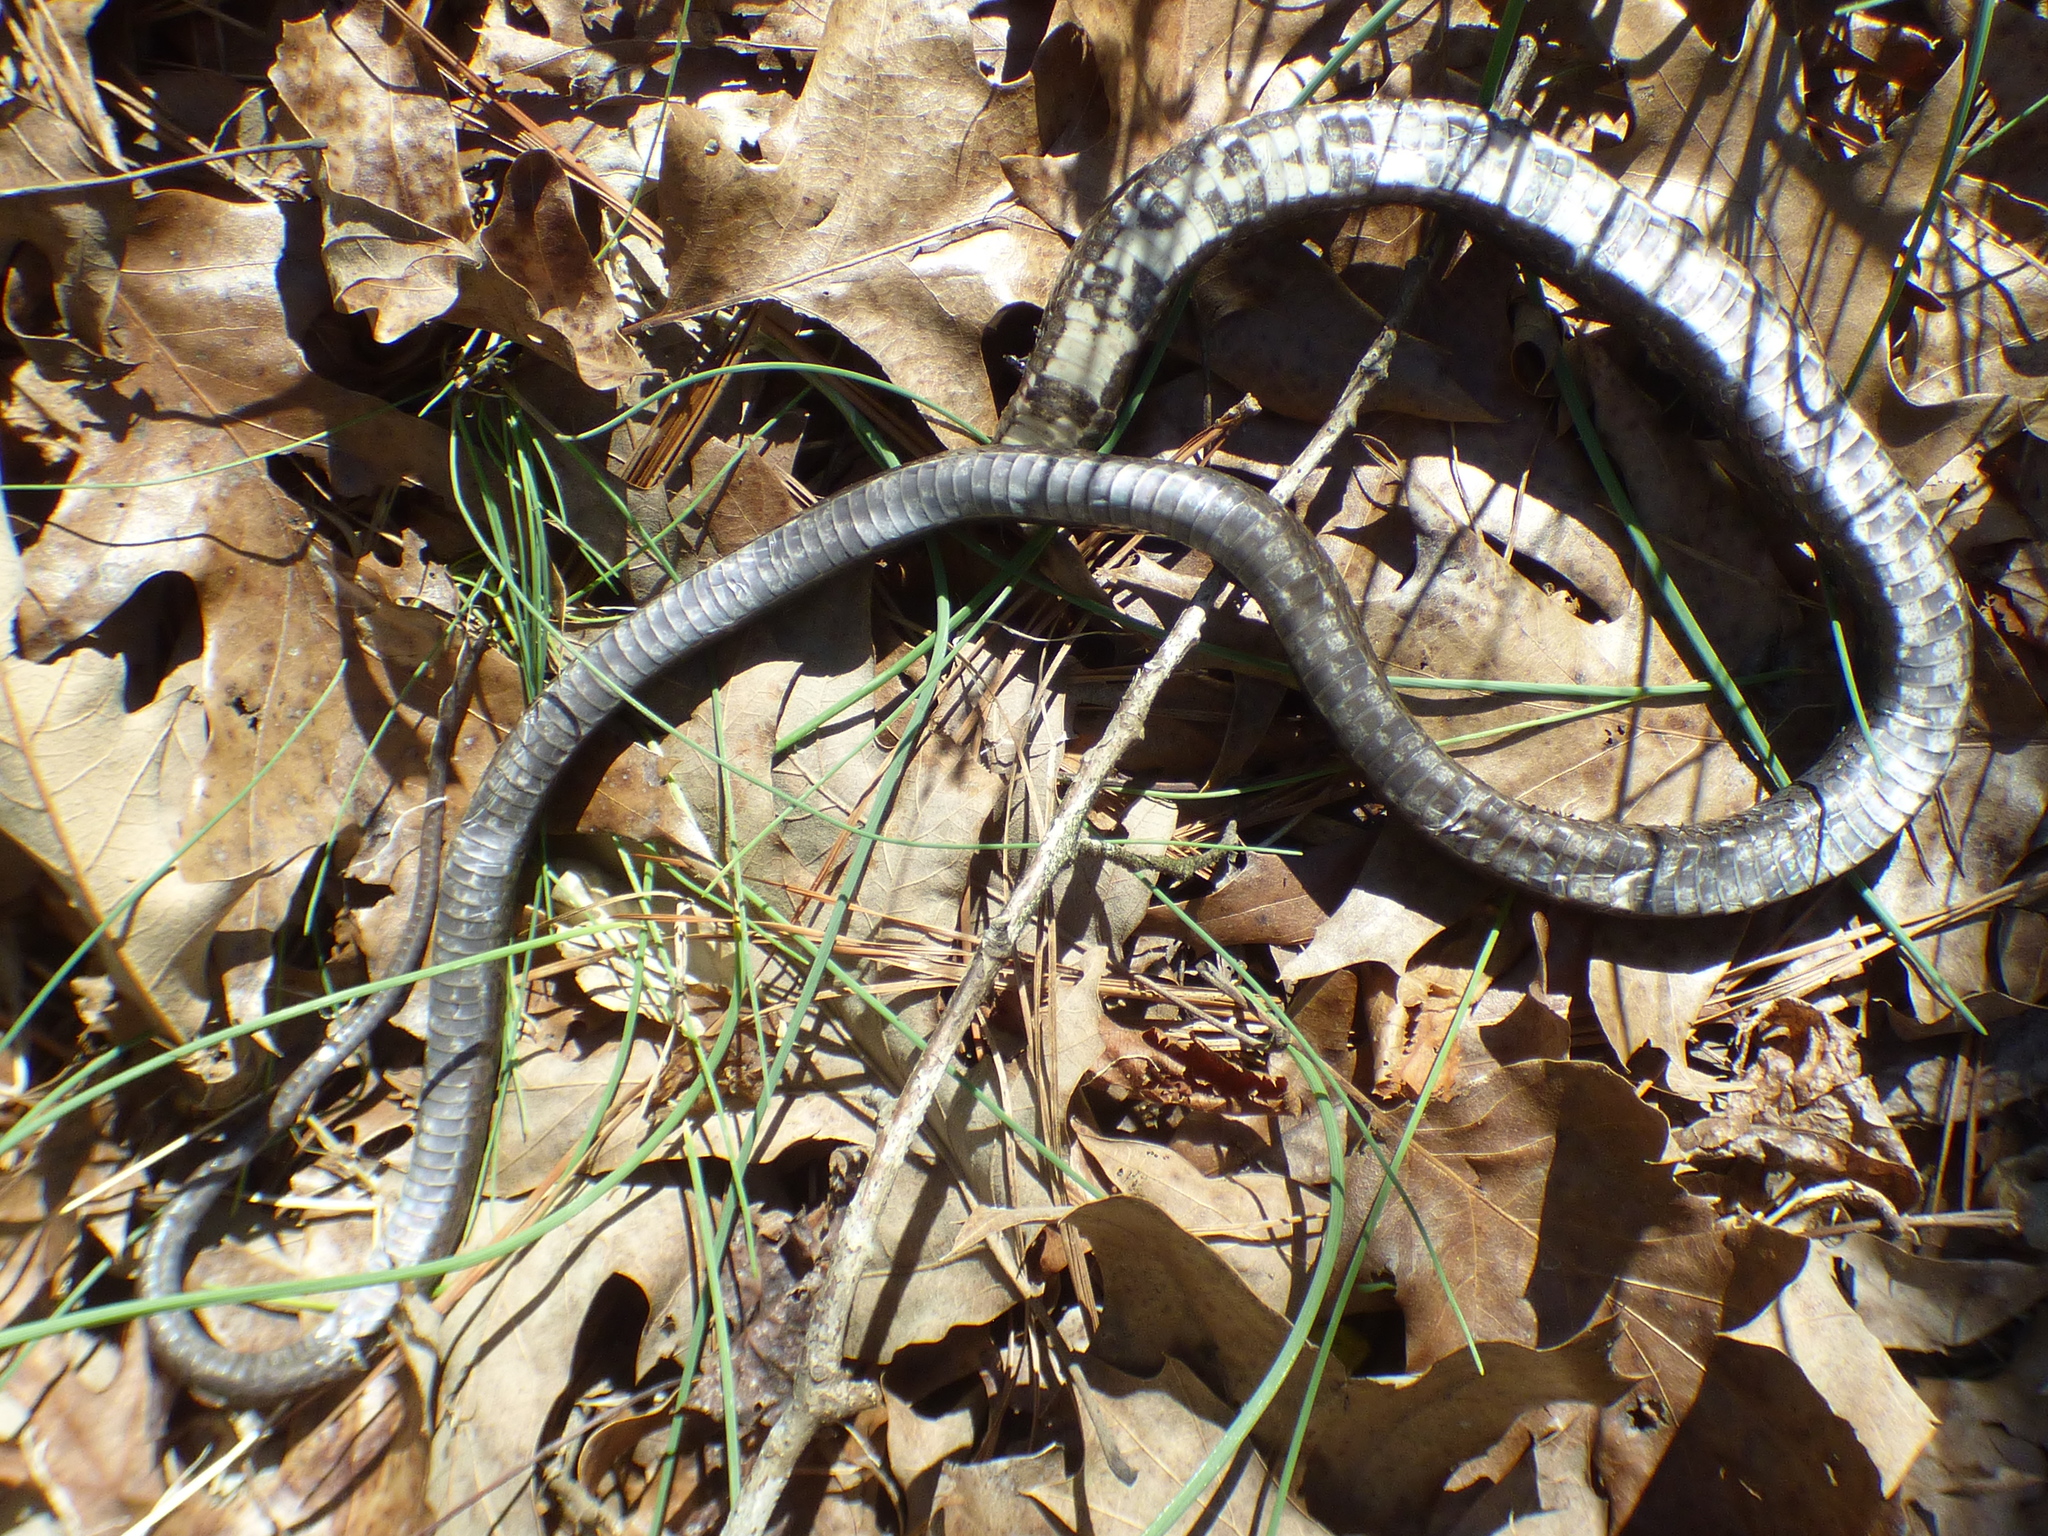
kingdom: Animalia
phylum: Chordata
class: Squamata
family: Colubridae
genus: Pantherophis
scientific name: Pantherophis alleghaniensis
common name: Eastern rat snake
